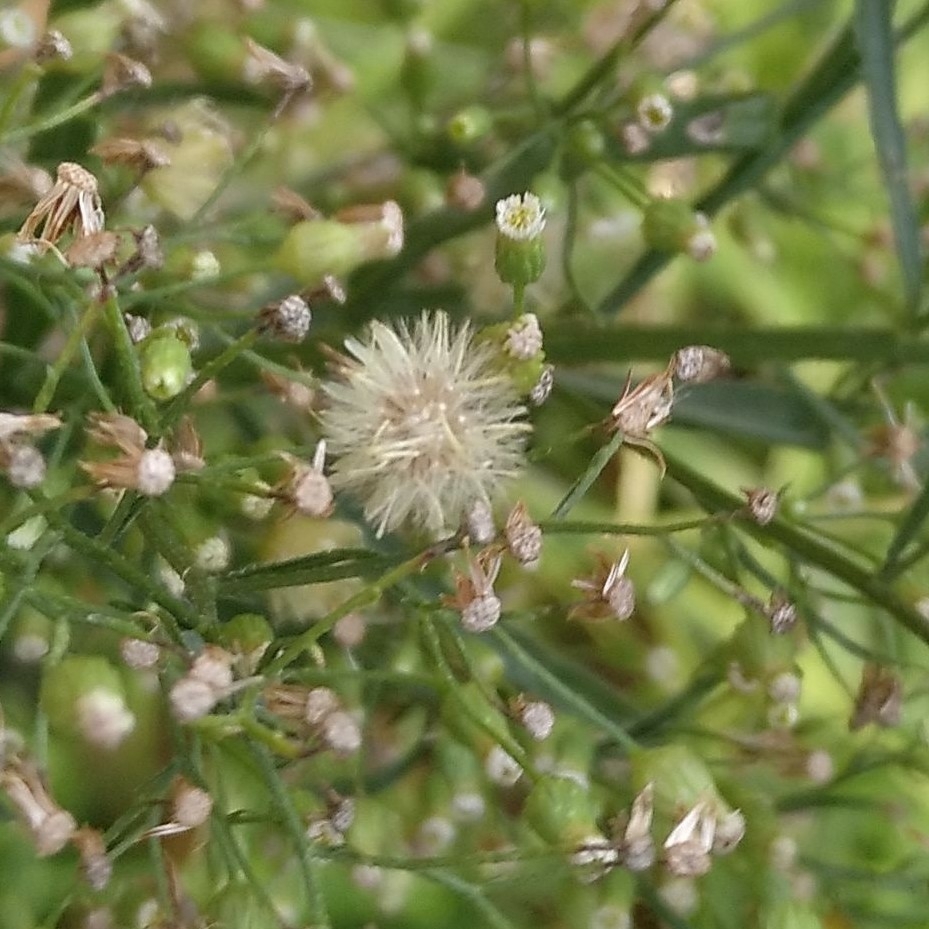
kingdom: Plantae
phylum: Tracheophyta
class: Magnoliopsida
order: Asterales
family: Asteraceae
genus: Erigeron
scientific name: Erigeron canadensis
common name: Canadian fleabane
